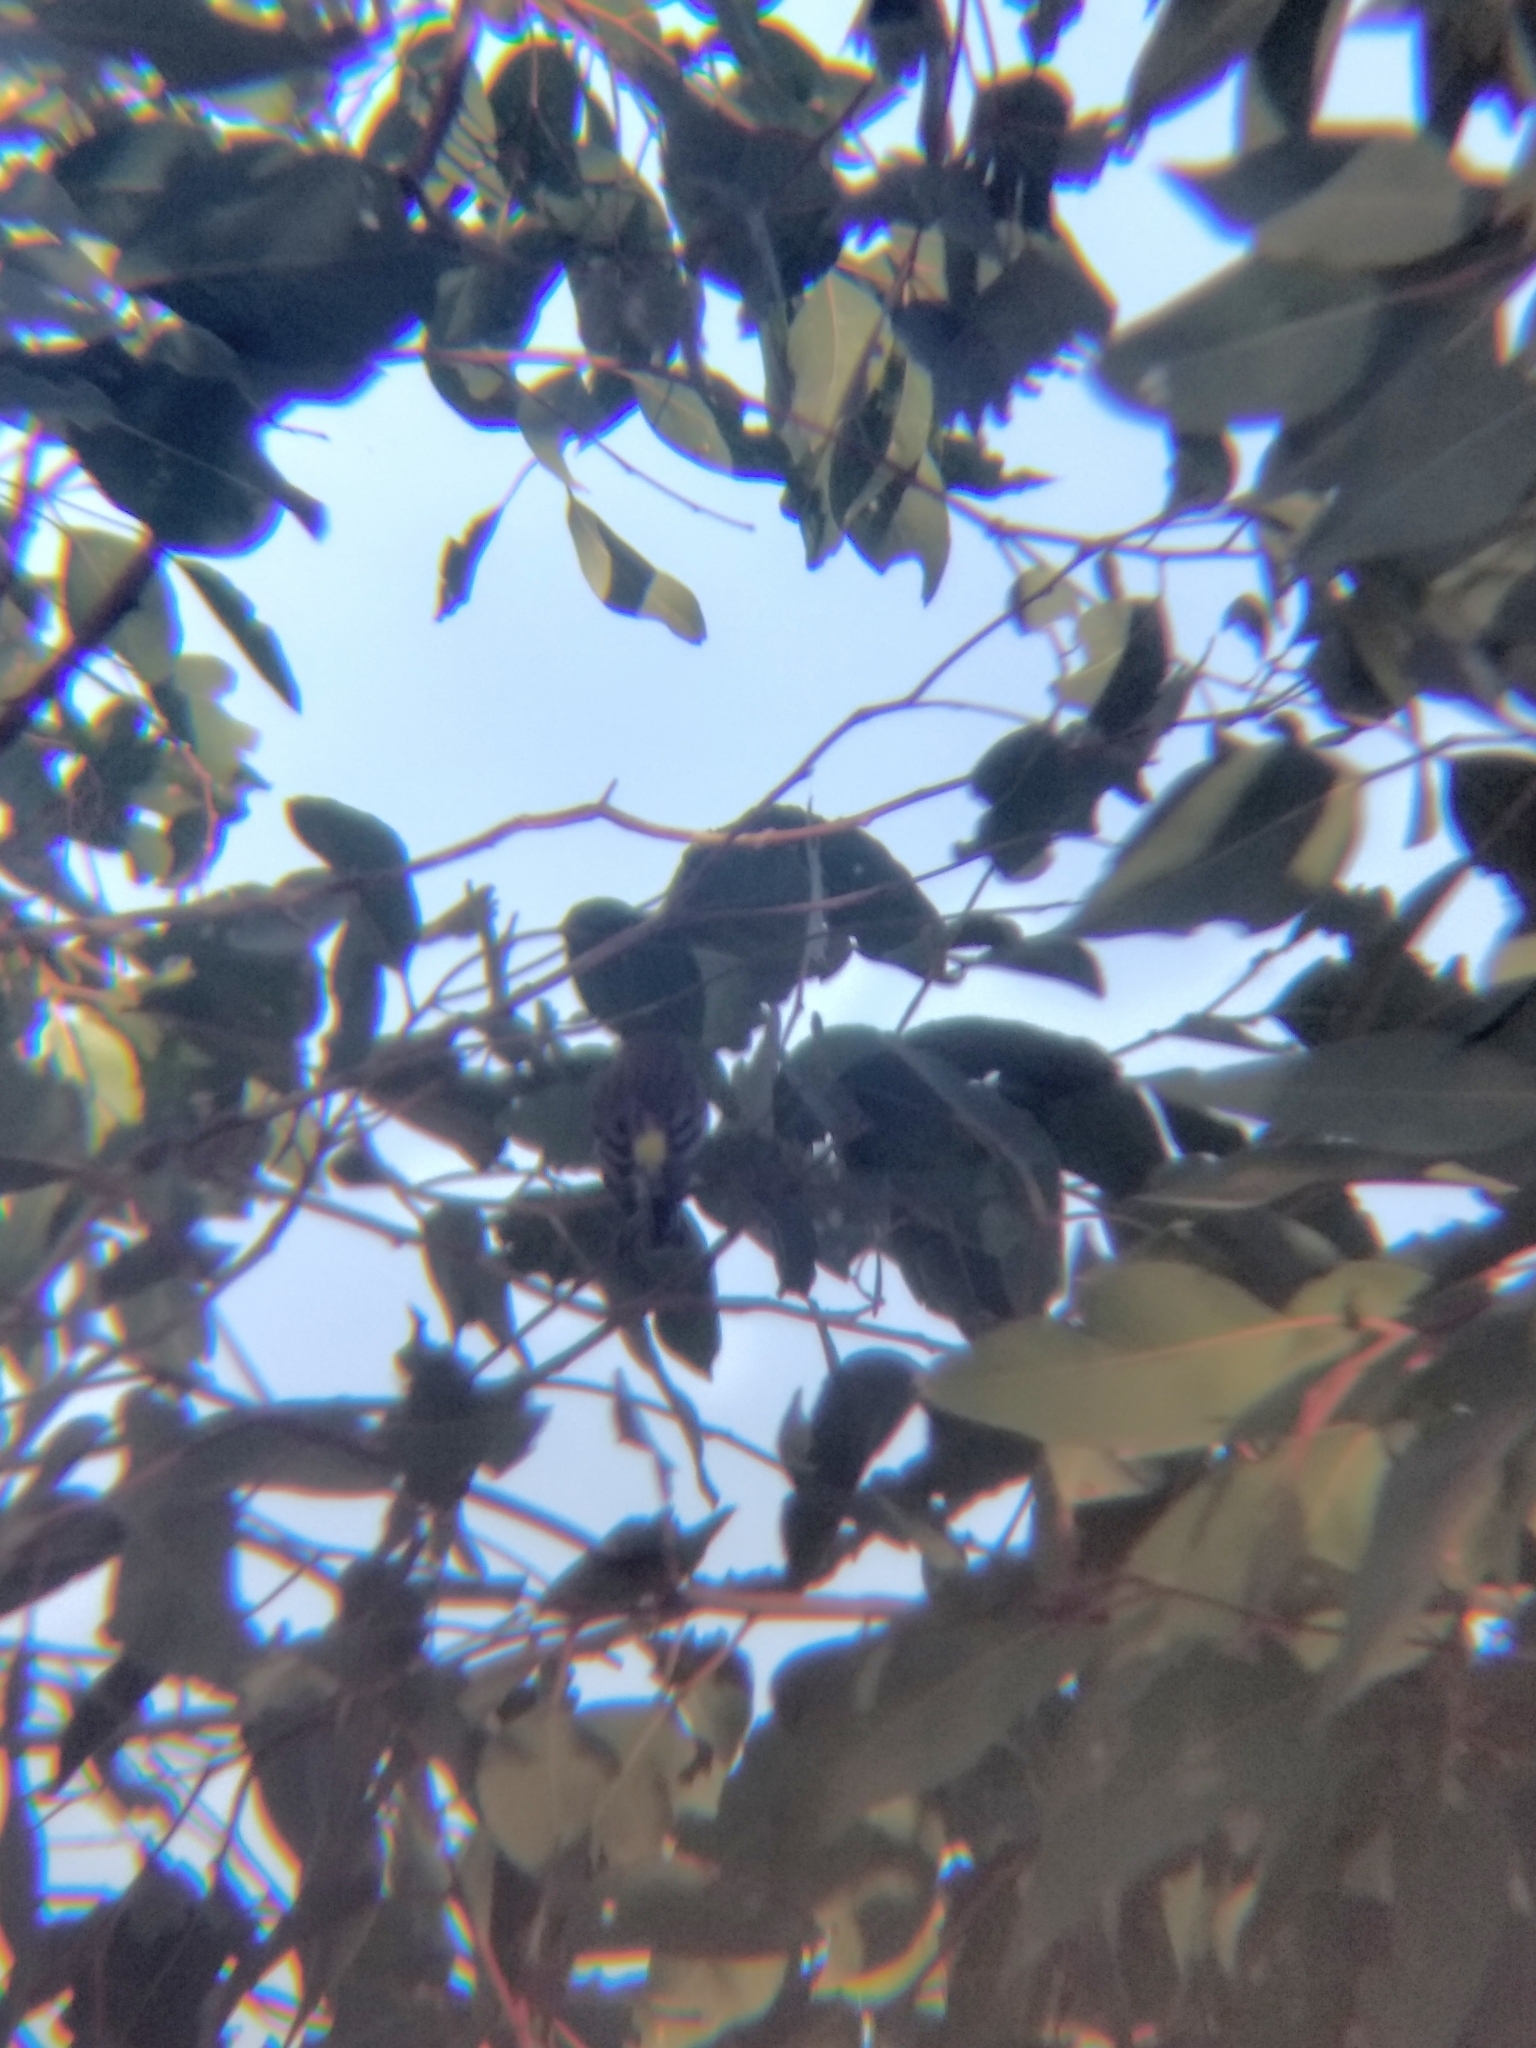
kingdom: Animalia
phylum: Chordata
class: Aves
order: Passeriformes
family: Parulidae
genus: Setophaga
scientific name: Setophaga coronata
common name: Myrtle warbler
